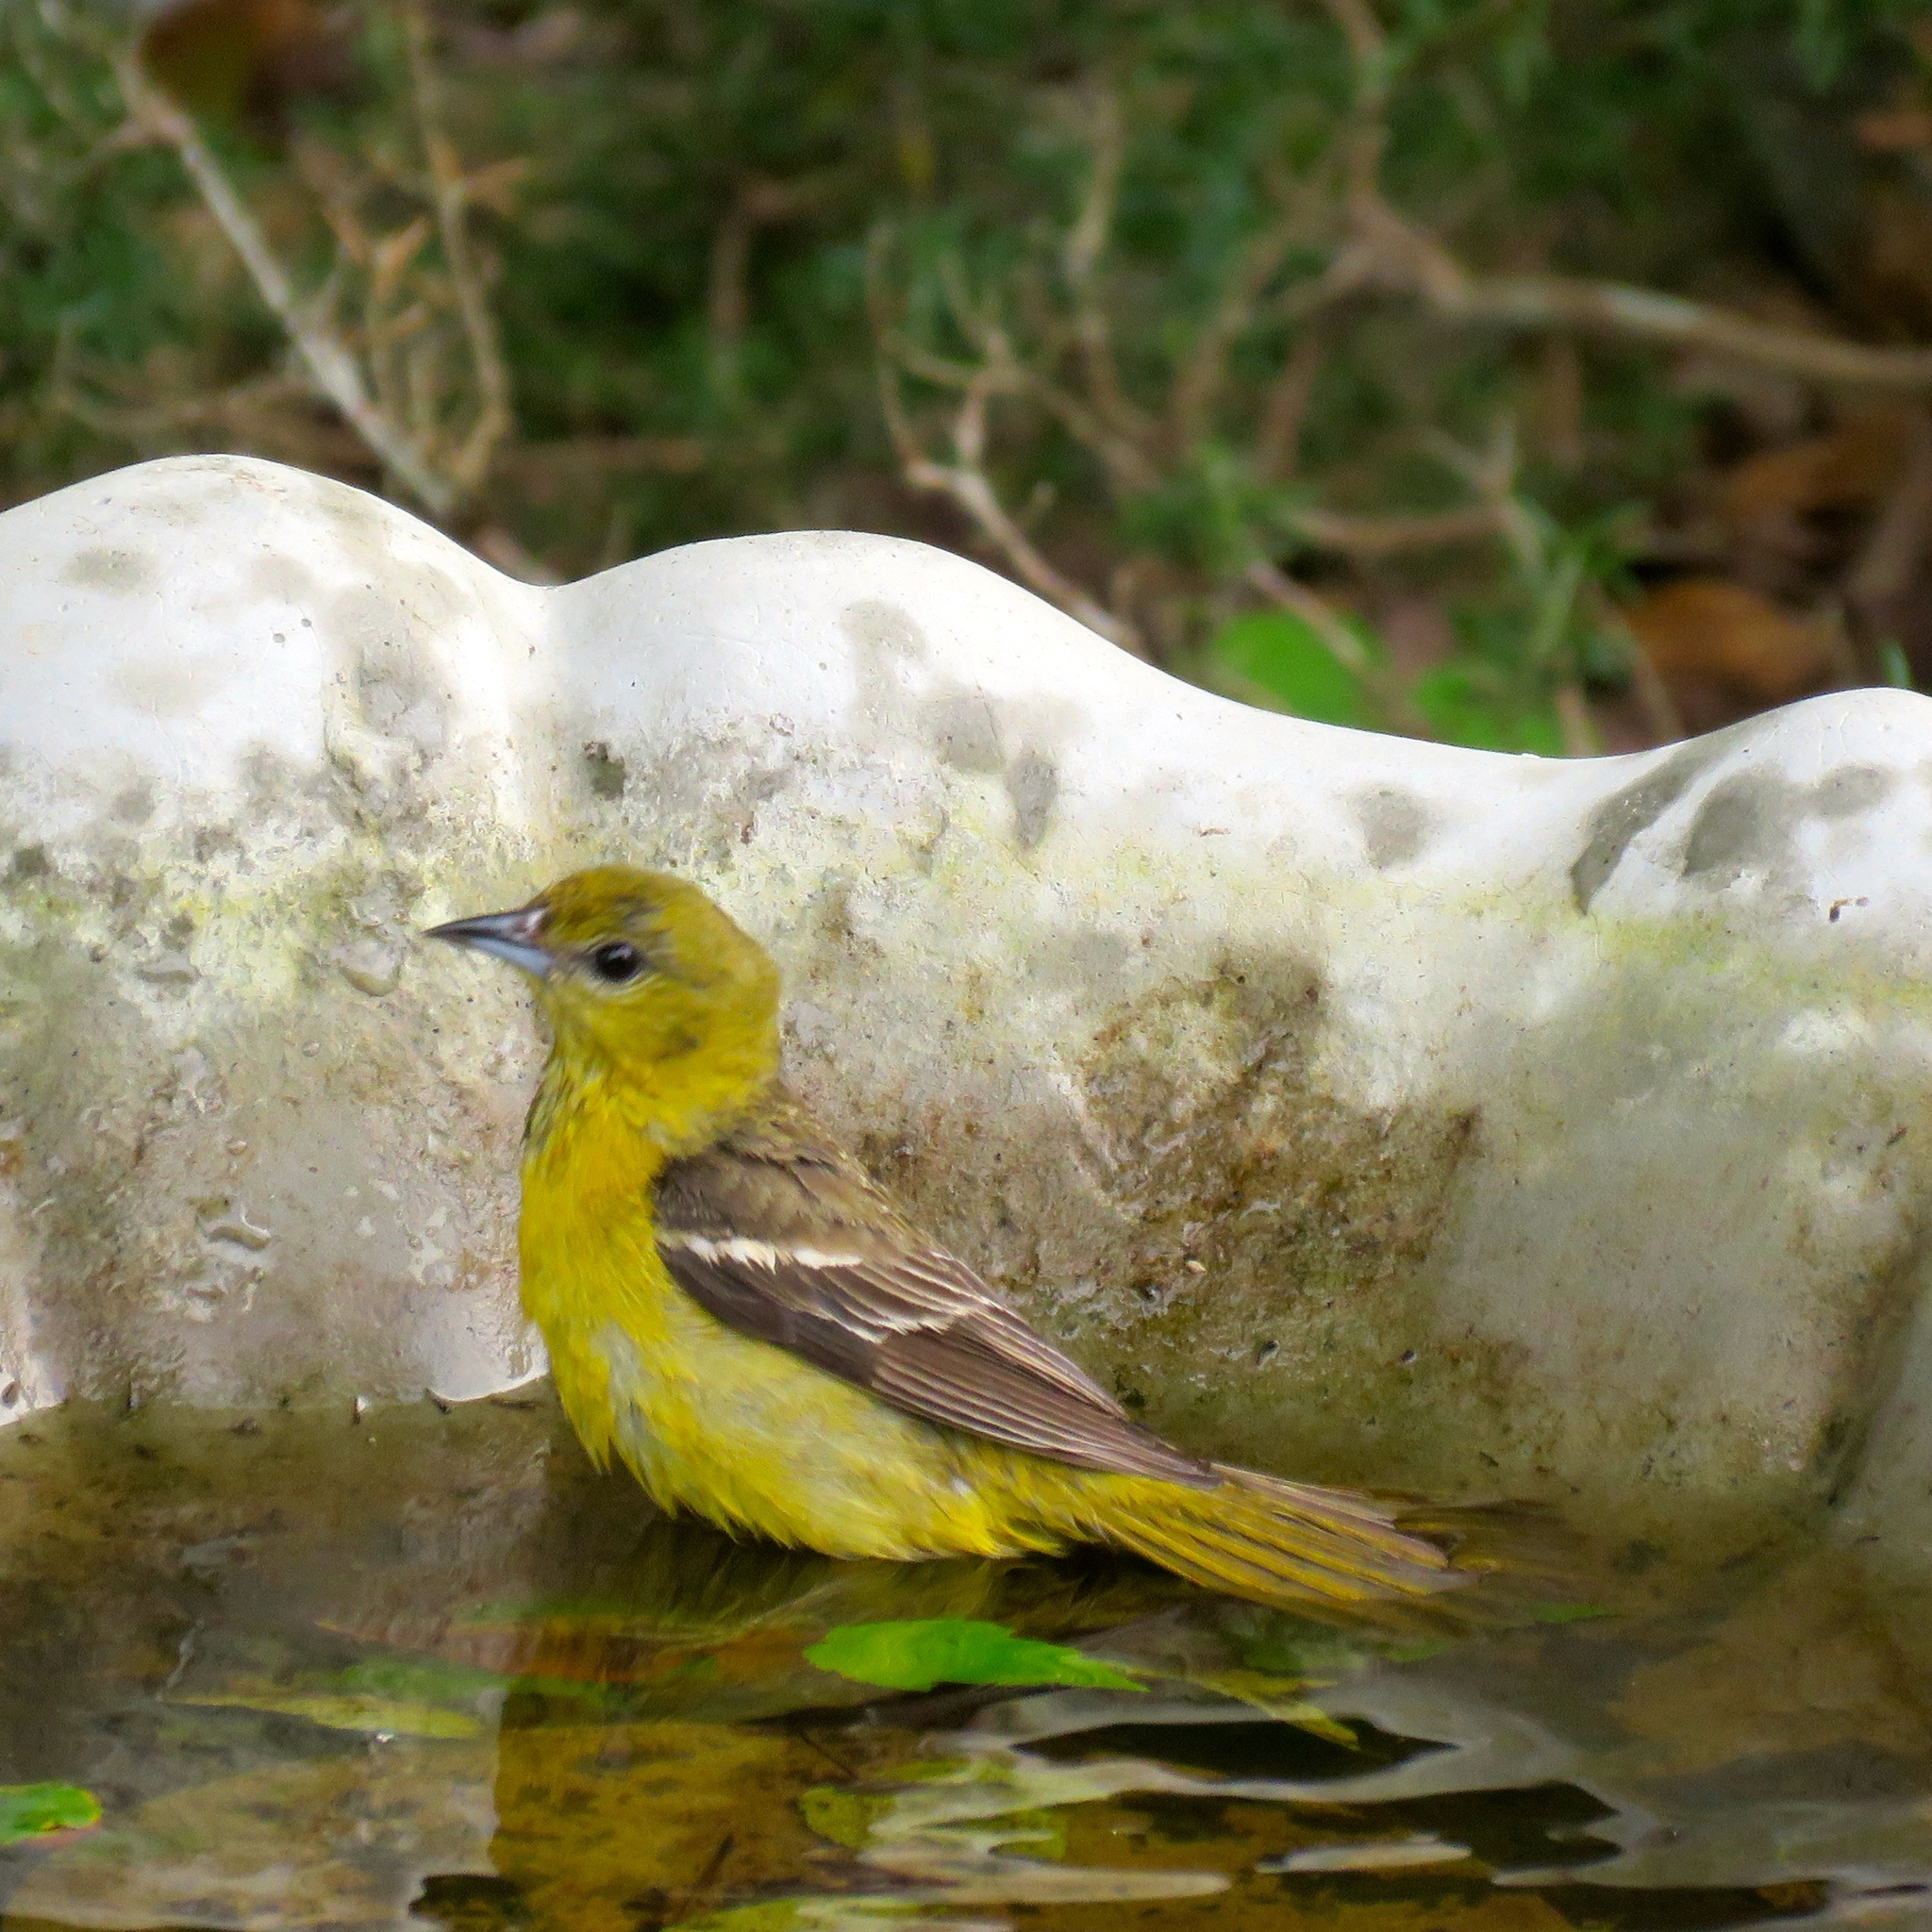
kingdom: Animalia
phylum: Chordata
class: Aves
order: Passeriformes
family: Icteridae
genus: Icterus
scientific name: Icterus spurius
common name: Orchard oriole
